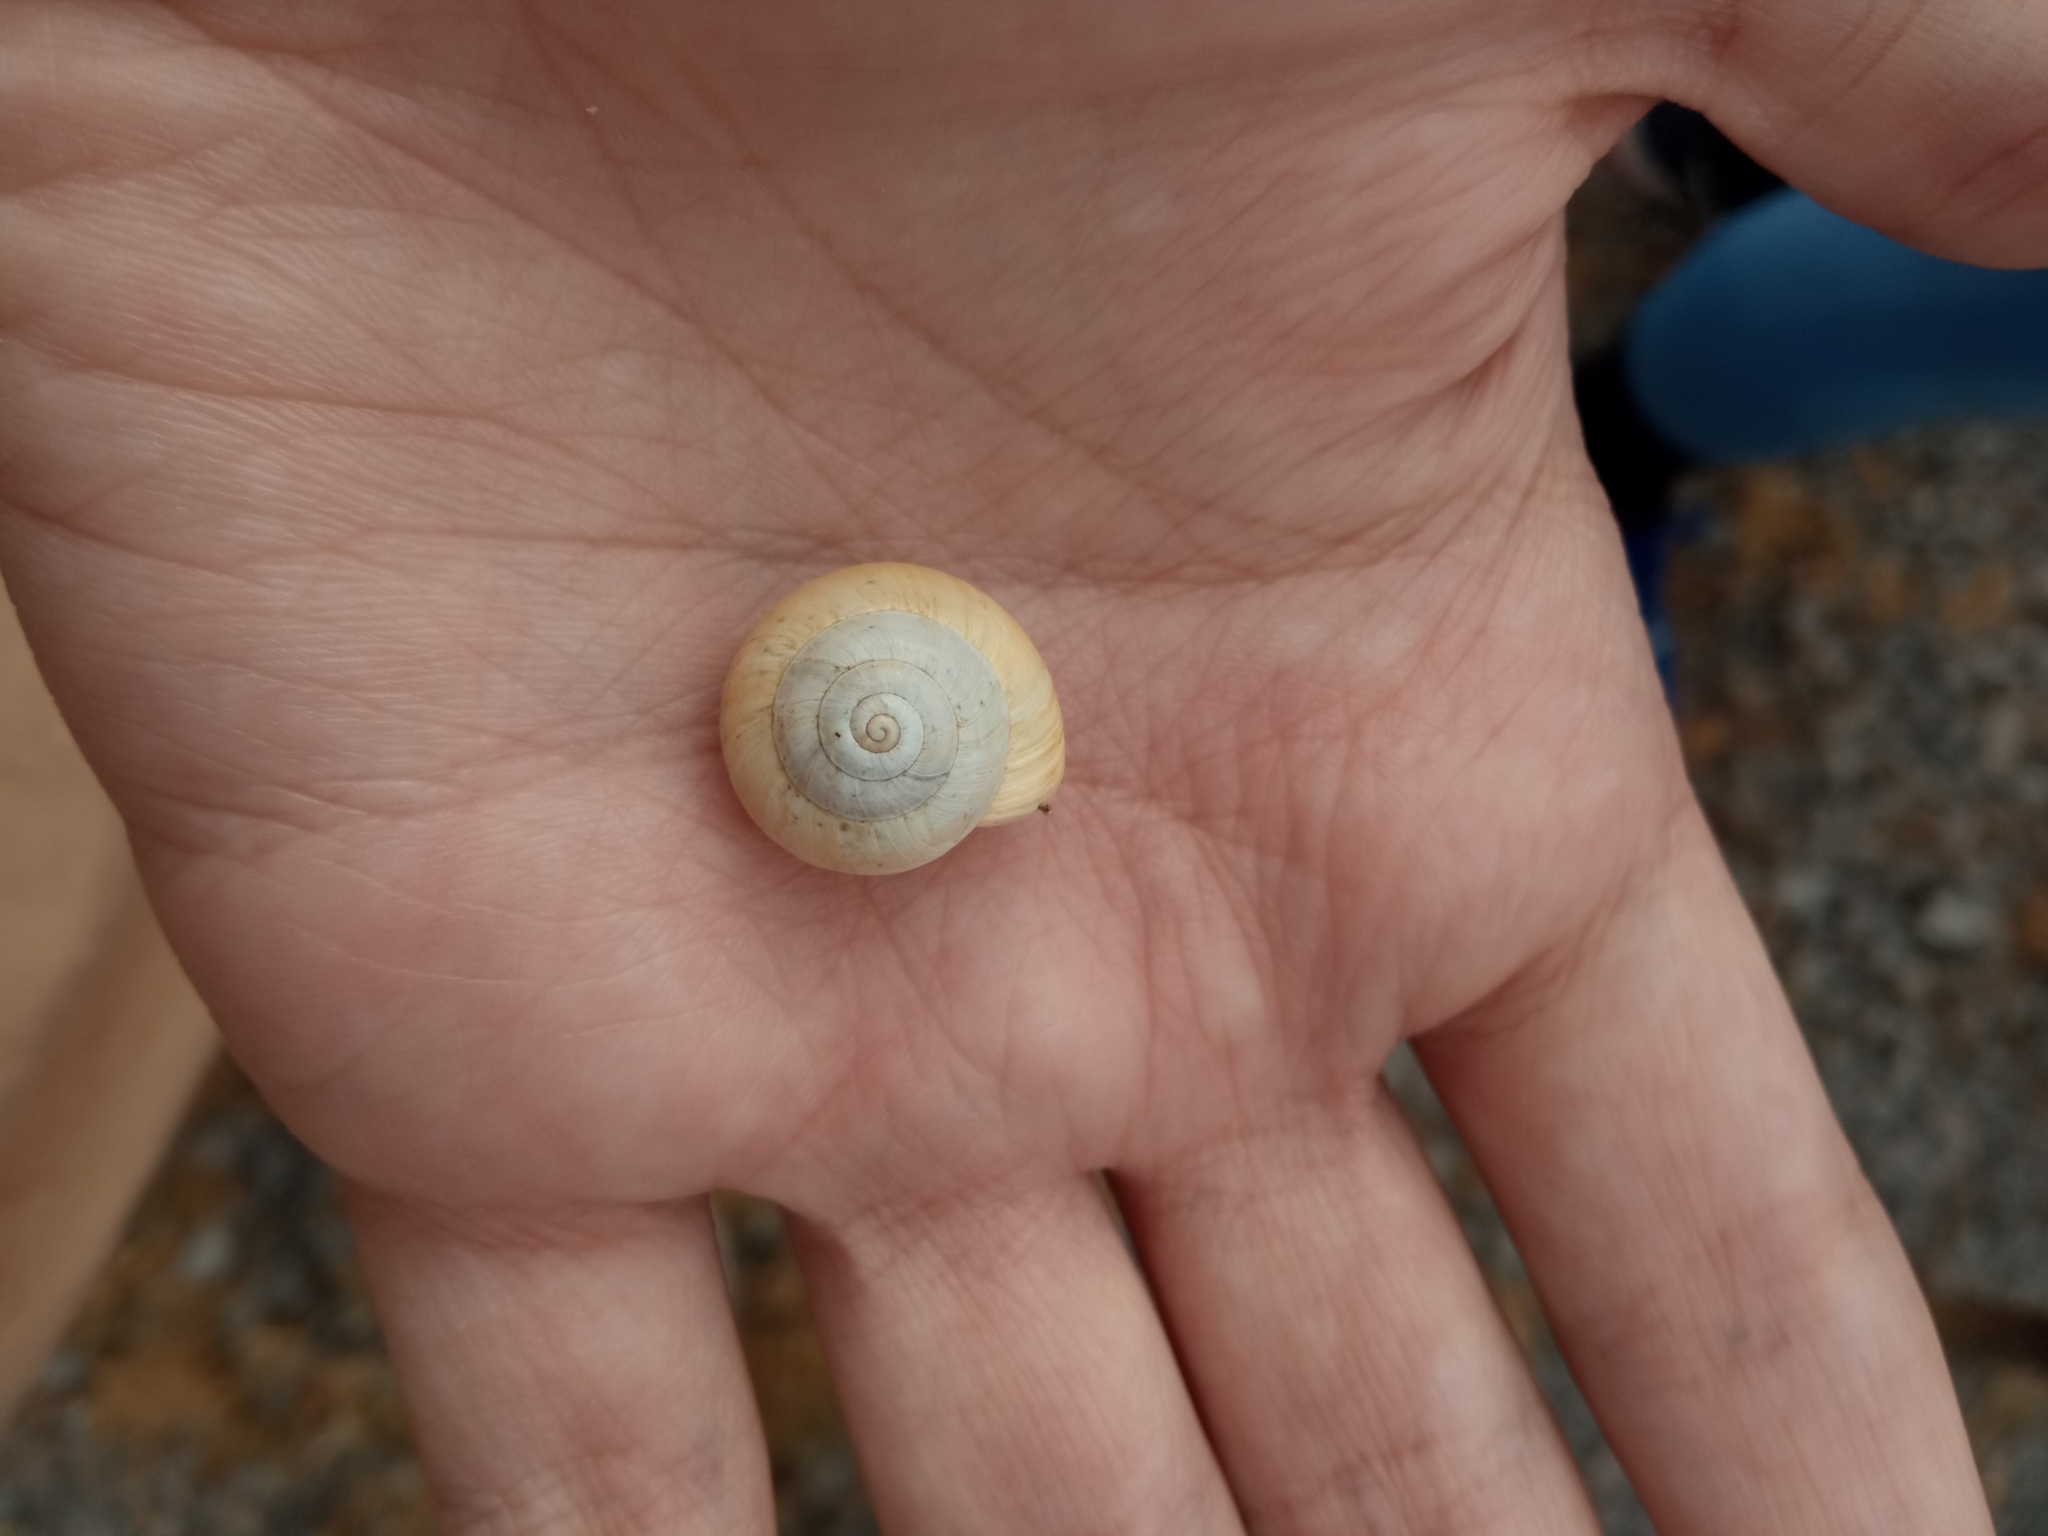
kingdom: Animalia
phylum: Mollusca
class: Gastropoda
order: Stylommatophora
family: Helicidae
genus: Theba
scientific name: Theba pisana
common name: White snail
